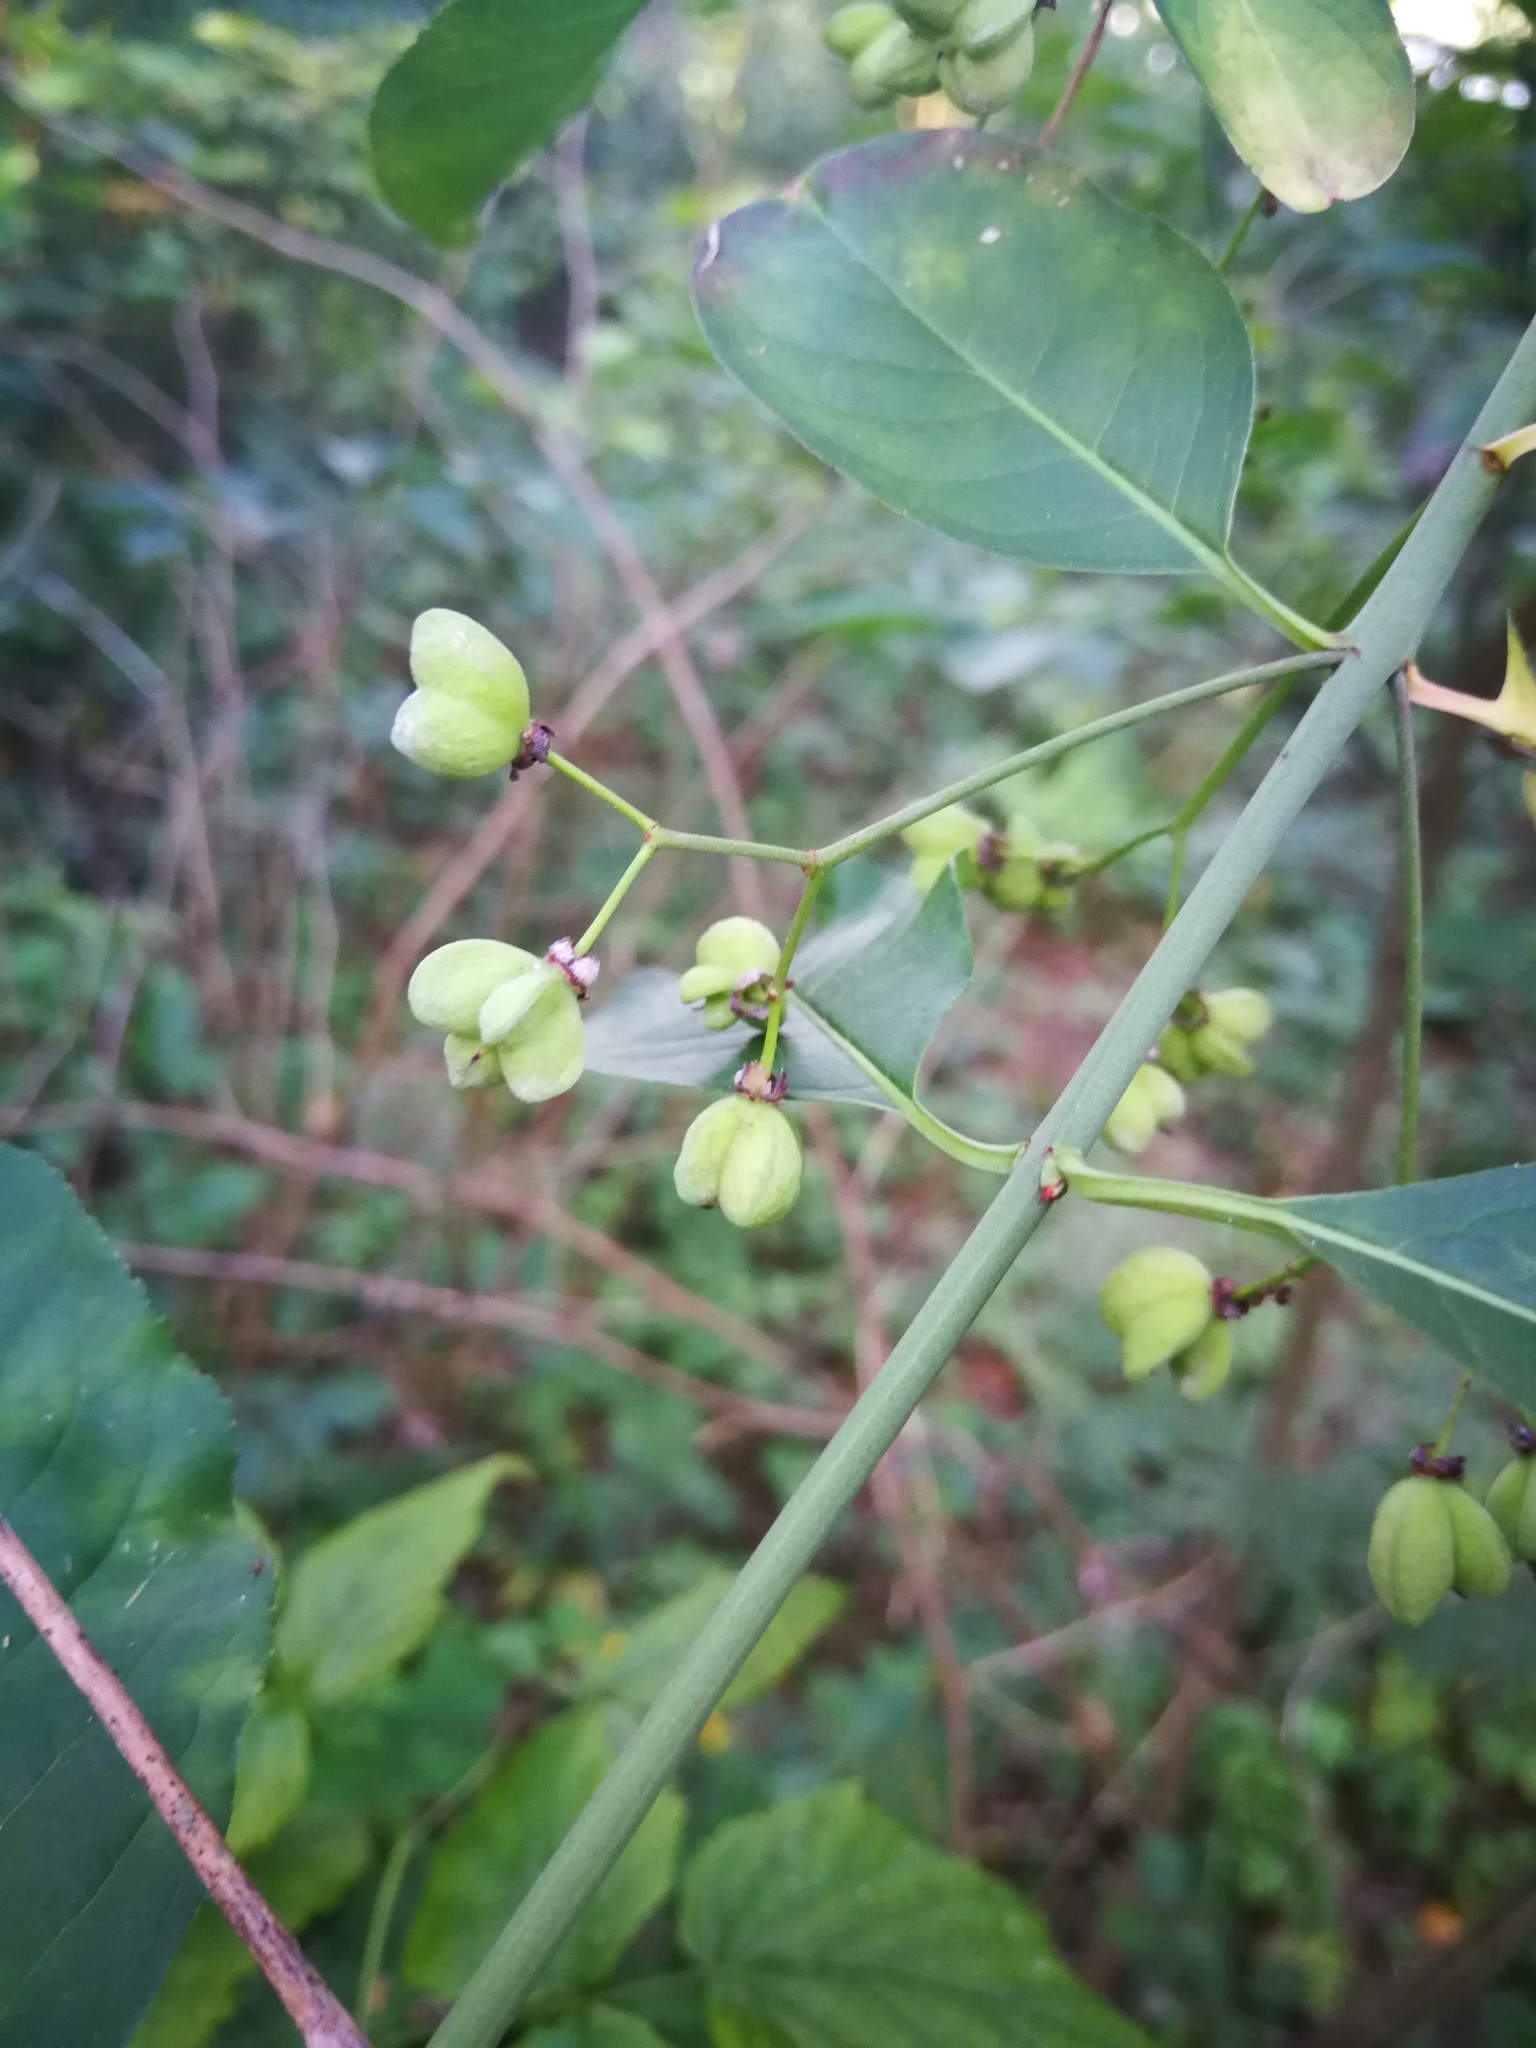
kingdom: Plantae
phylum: Tracheophyta
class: Magnoliopsida
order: Celastrales
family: Celastraceae
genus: Euonymus
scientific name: Euonymus europaeus
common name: Spindle
